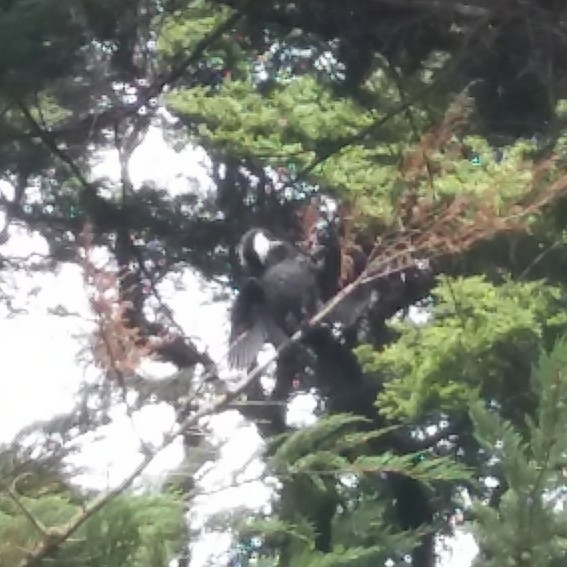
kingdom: Animalia
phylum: Chordata
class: Aves
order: Suliformes
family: Phalacrocoracidae
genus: Microcarbo
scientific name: Microcarbo melanoleucos
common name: Little pied cormorant
